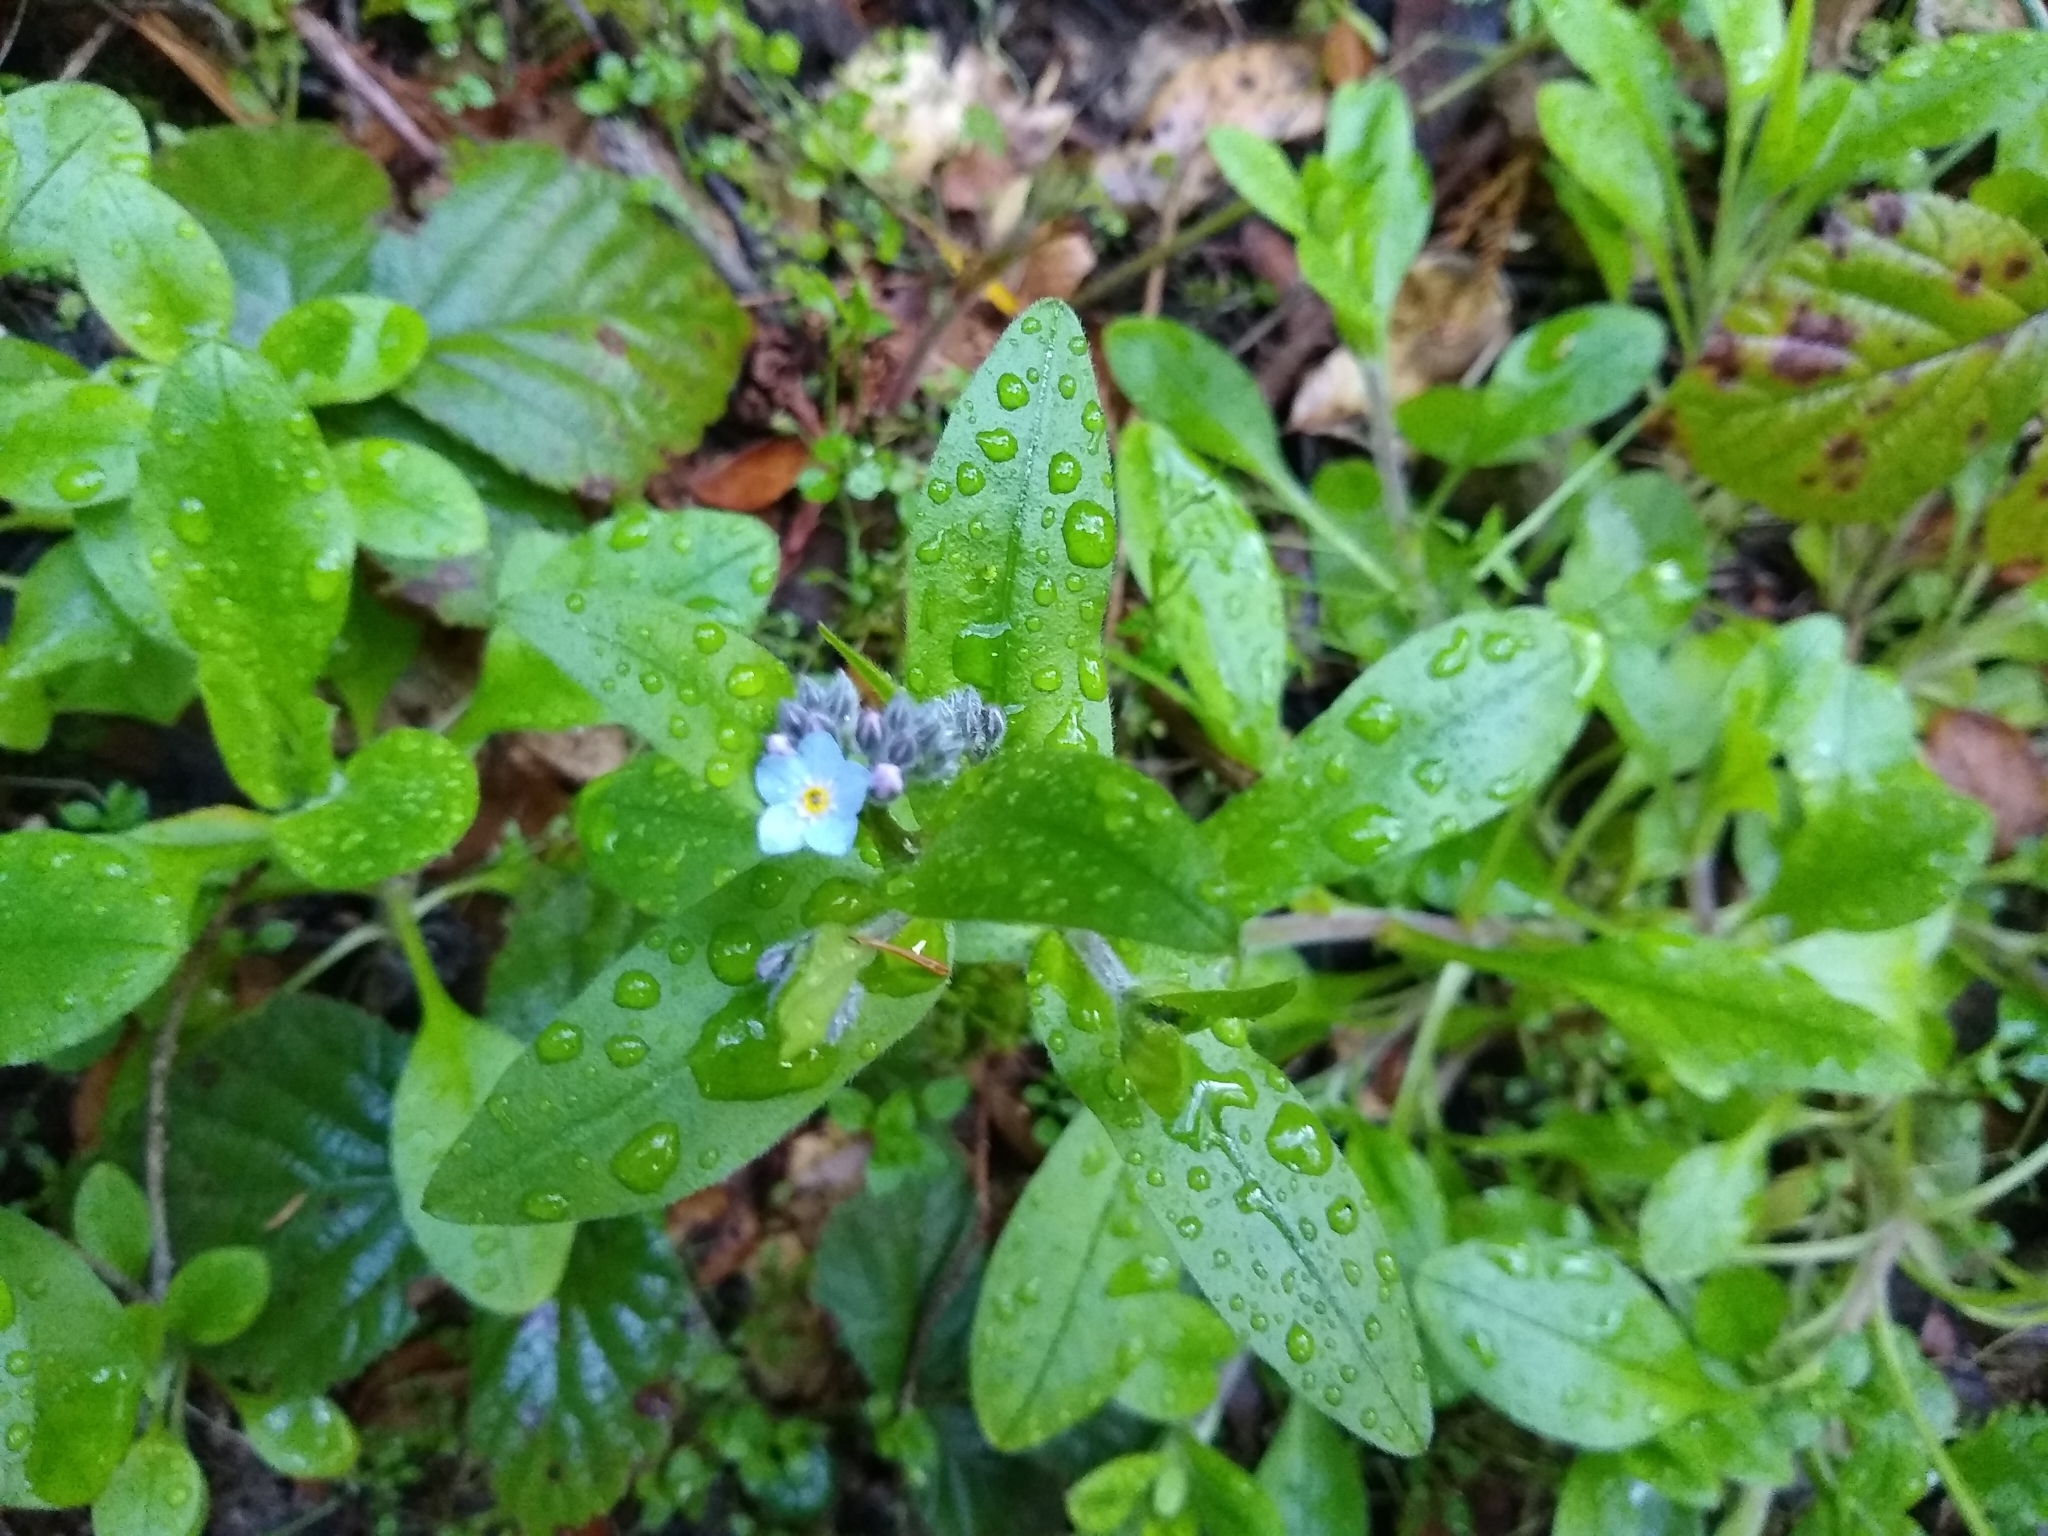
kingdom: Plantae
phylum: Tracheophyta
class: Magnoliopsida
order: Boraginales
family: Boraginaceae
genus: Myosotis
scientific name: Myosotis latifolia
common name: Broadleaf forget-me-not
